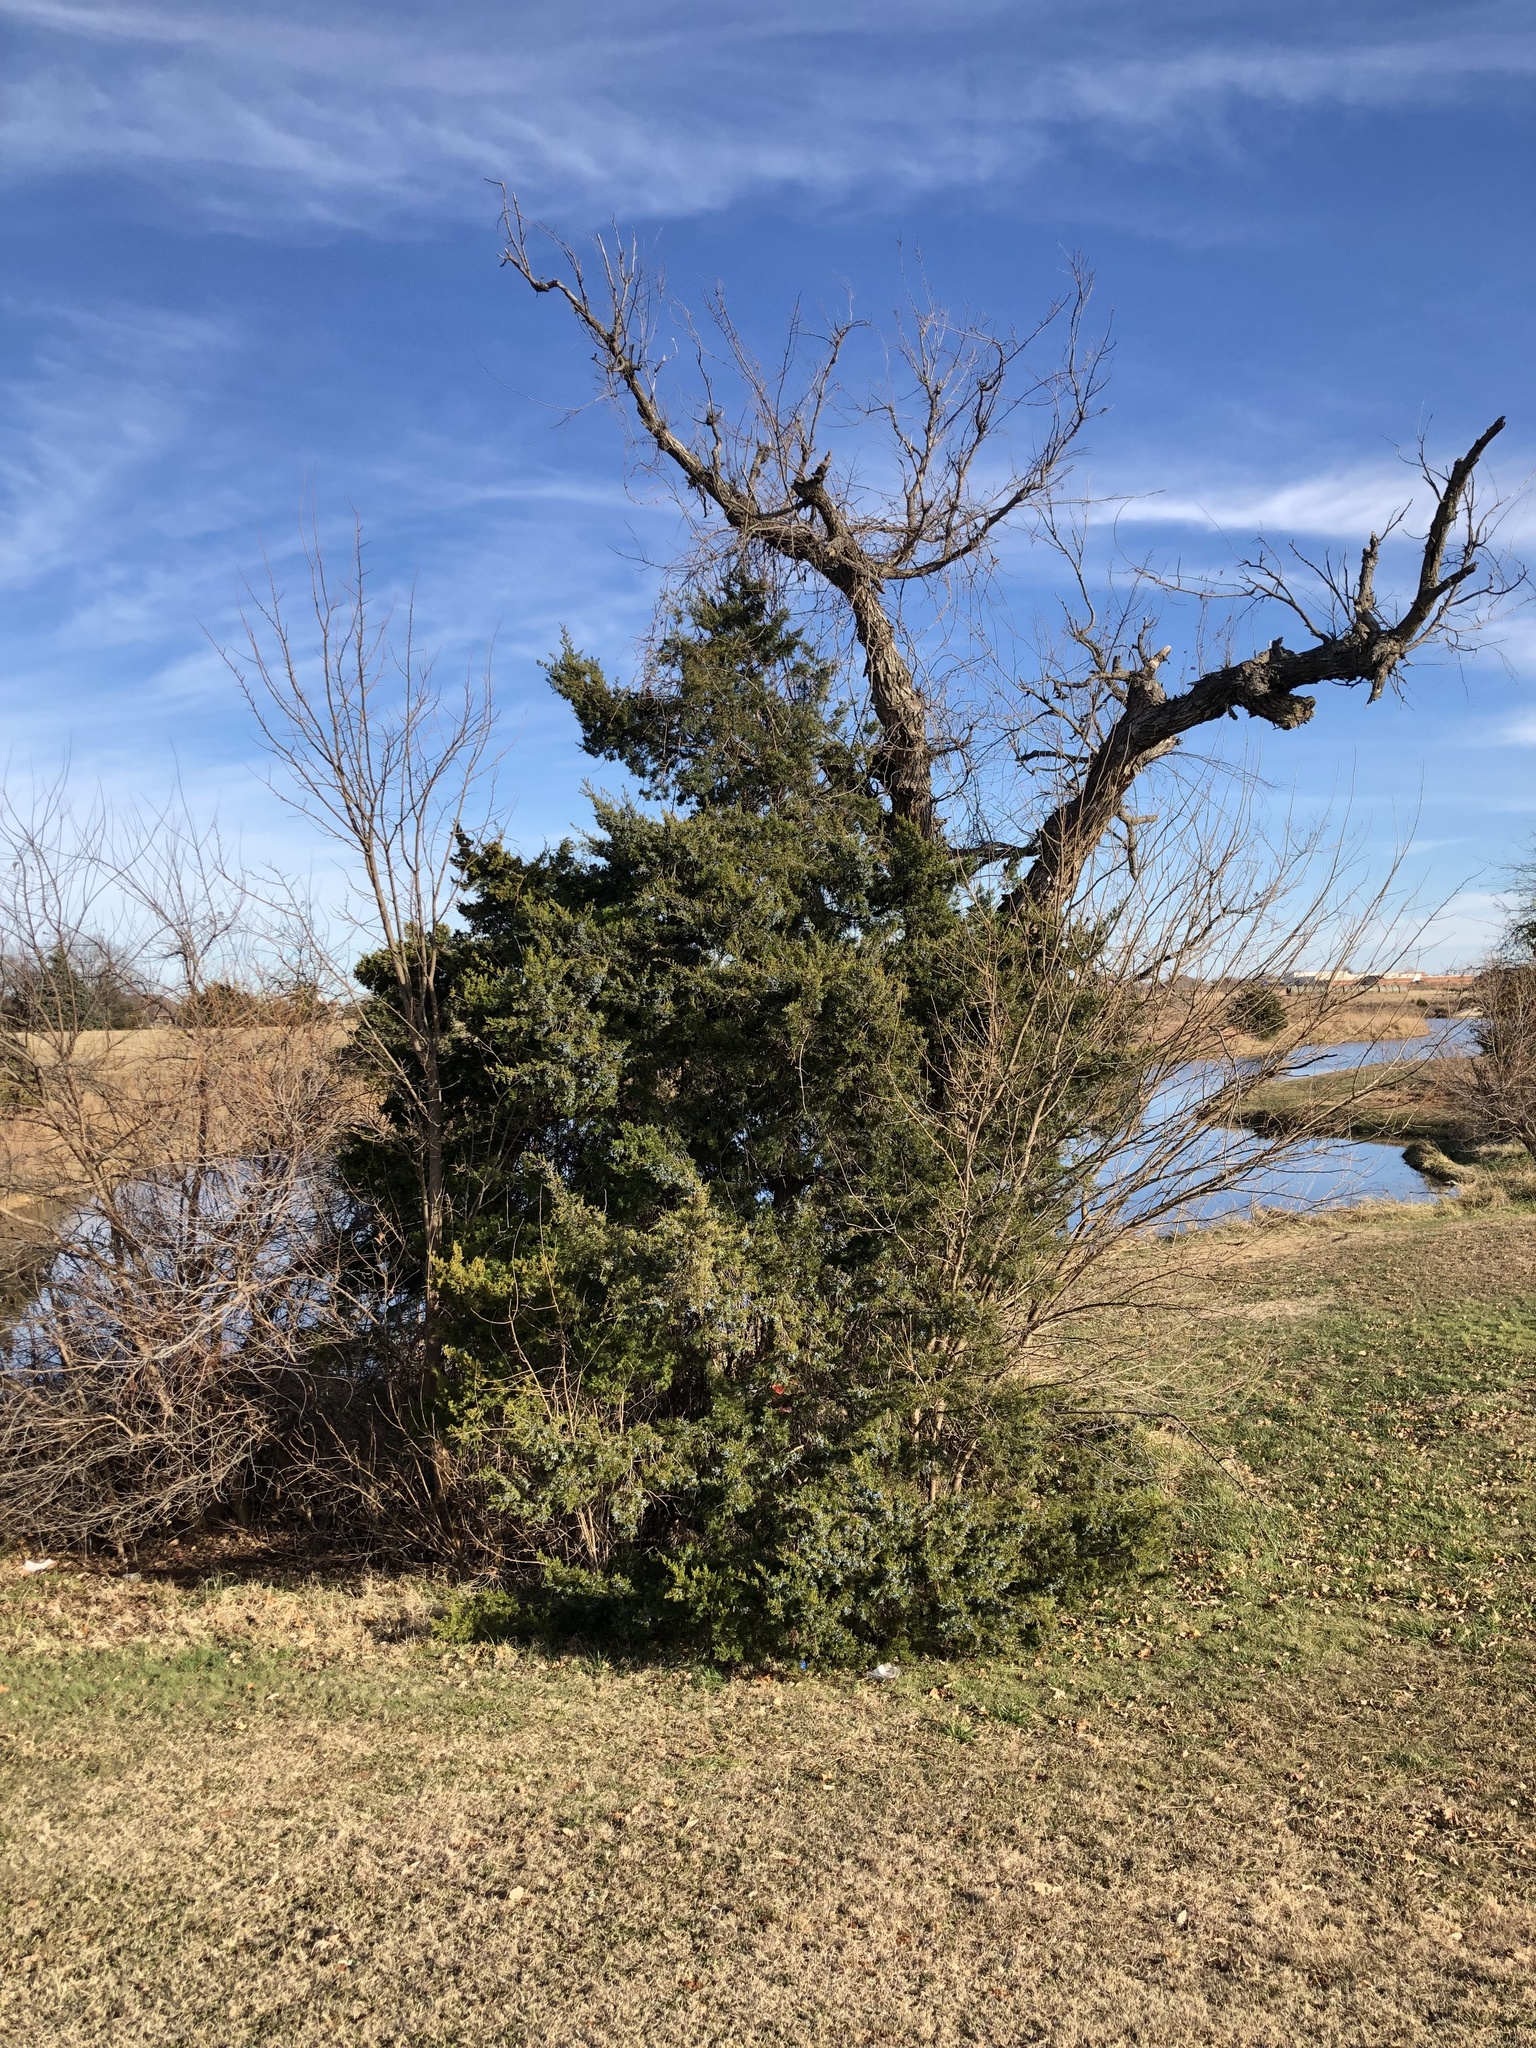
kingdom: Plantae
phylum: Tracheophyta
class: Pinopsida
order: Pinales
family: Cupressaceae
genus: Juniperus
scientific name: Juniperus virginiana
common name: Red juniper
